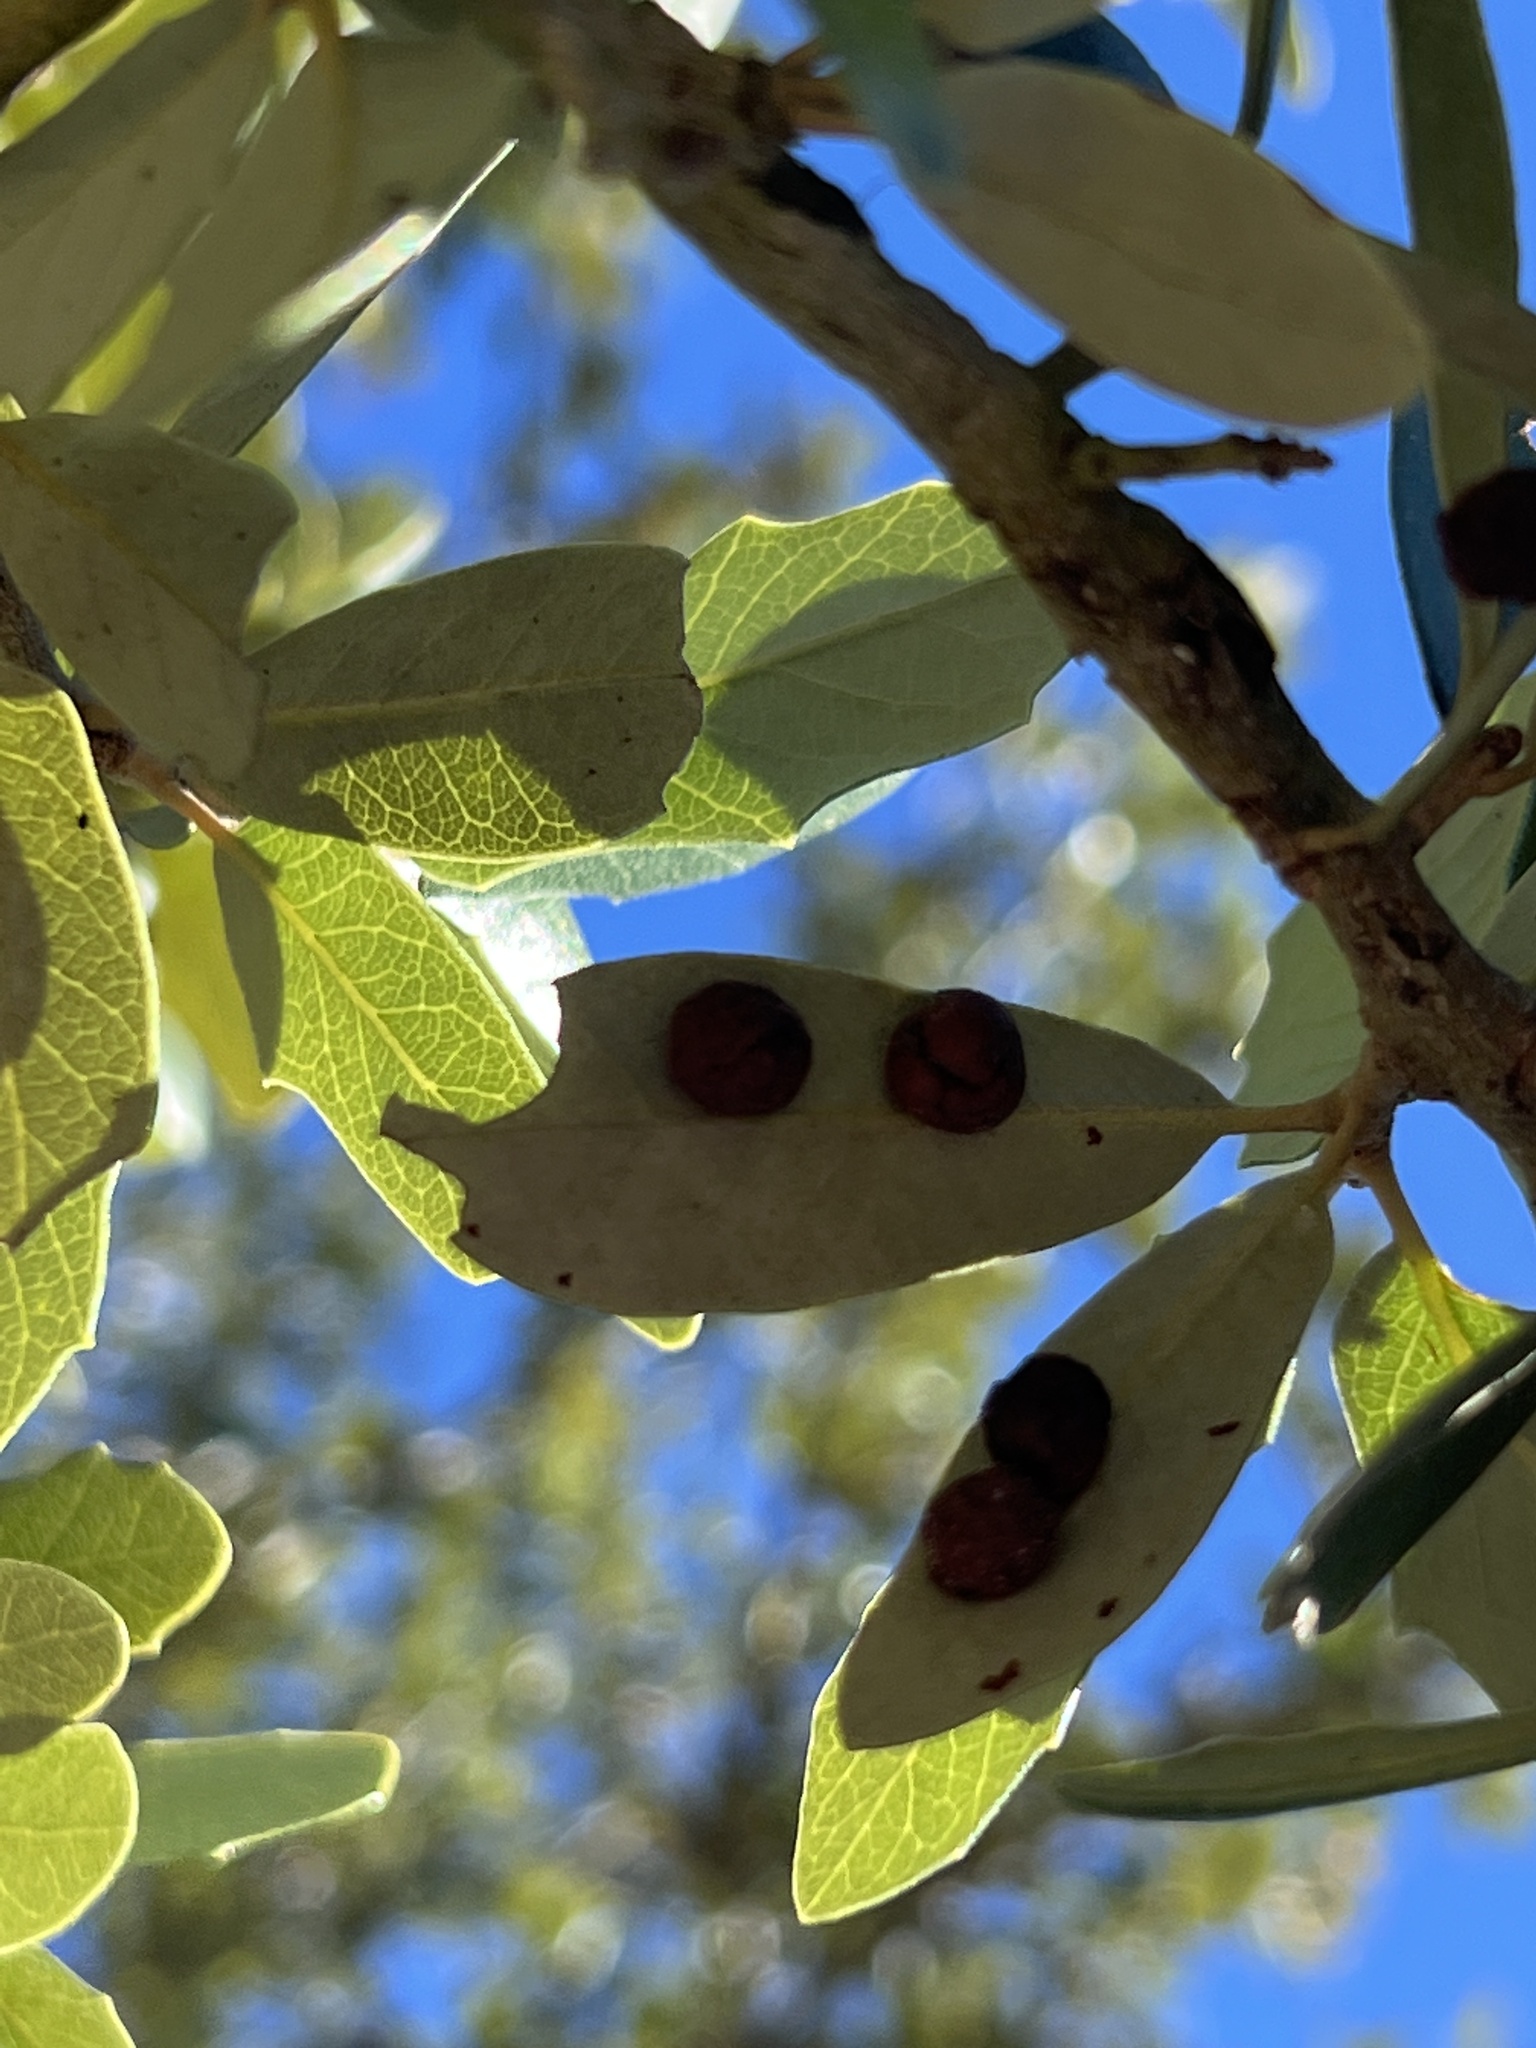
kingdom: Animalia
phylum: Arthropoda
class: Insecta
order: Hymenoptera
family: Cynipidae
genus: Belonocnema
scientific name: Belonocnema kinseyi
